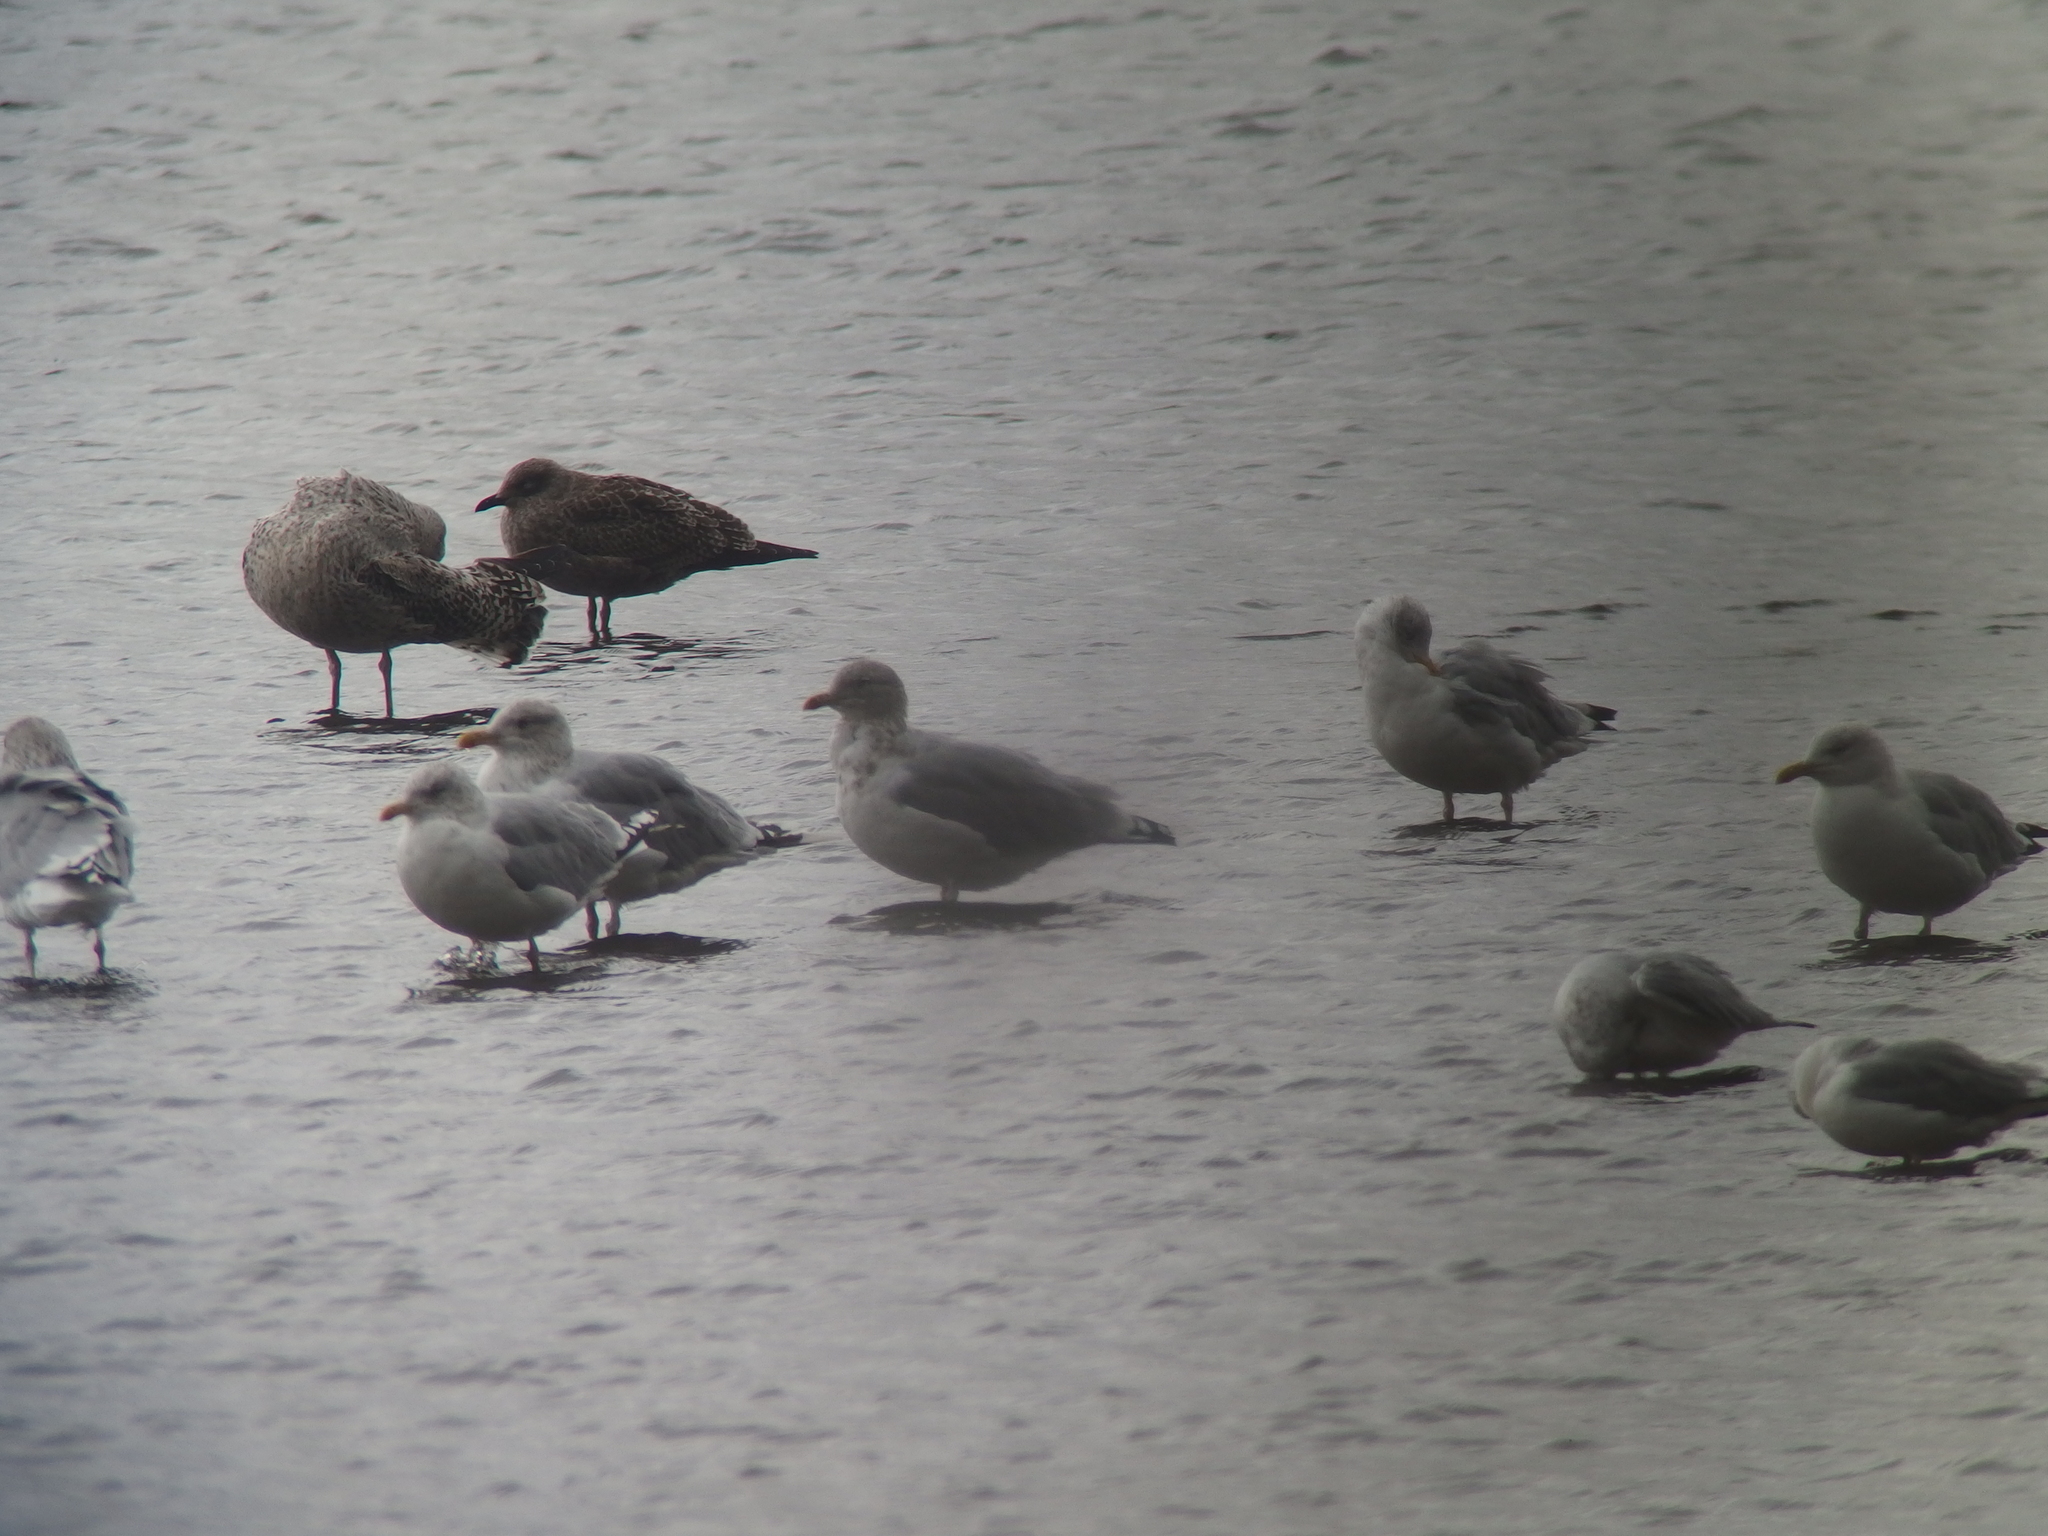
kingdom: Animalia
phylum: Chordata
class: Aves
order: Charadriiformes
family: Laridae
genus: Larus
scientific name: Larus argentatus
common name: Herring gull
